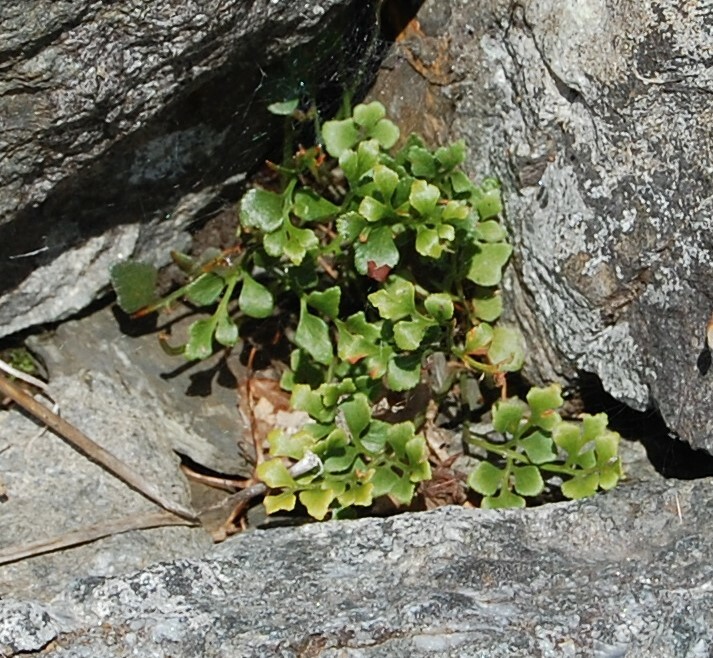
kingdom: Plantae
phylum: Tracheophyta
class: Polypodiopsida
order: Polypodiales
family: Aspleniaceae
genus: Asplenium
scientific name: Asplenium ruta-muraria
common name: Wall-rue
